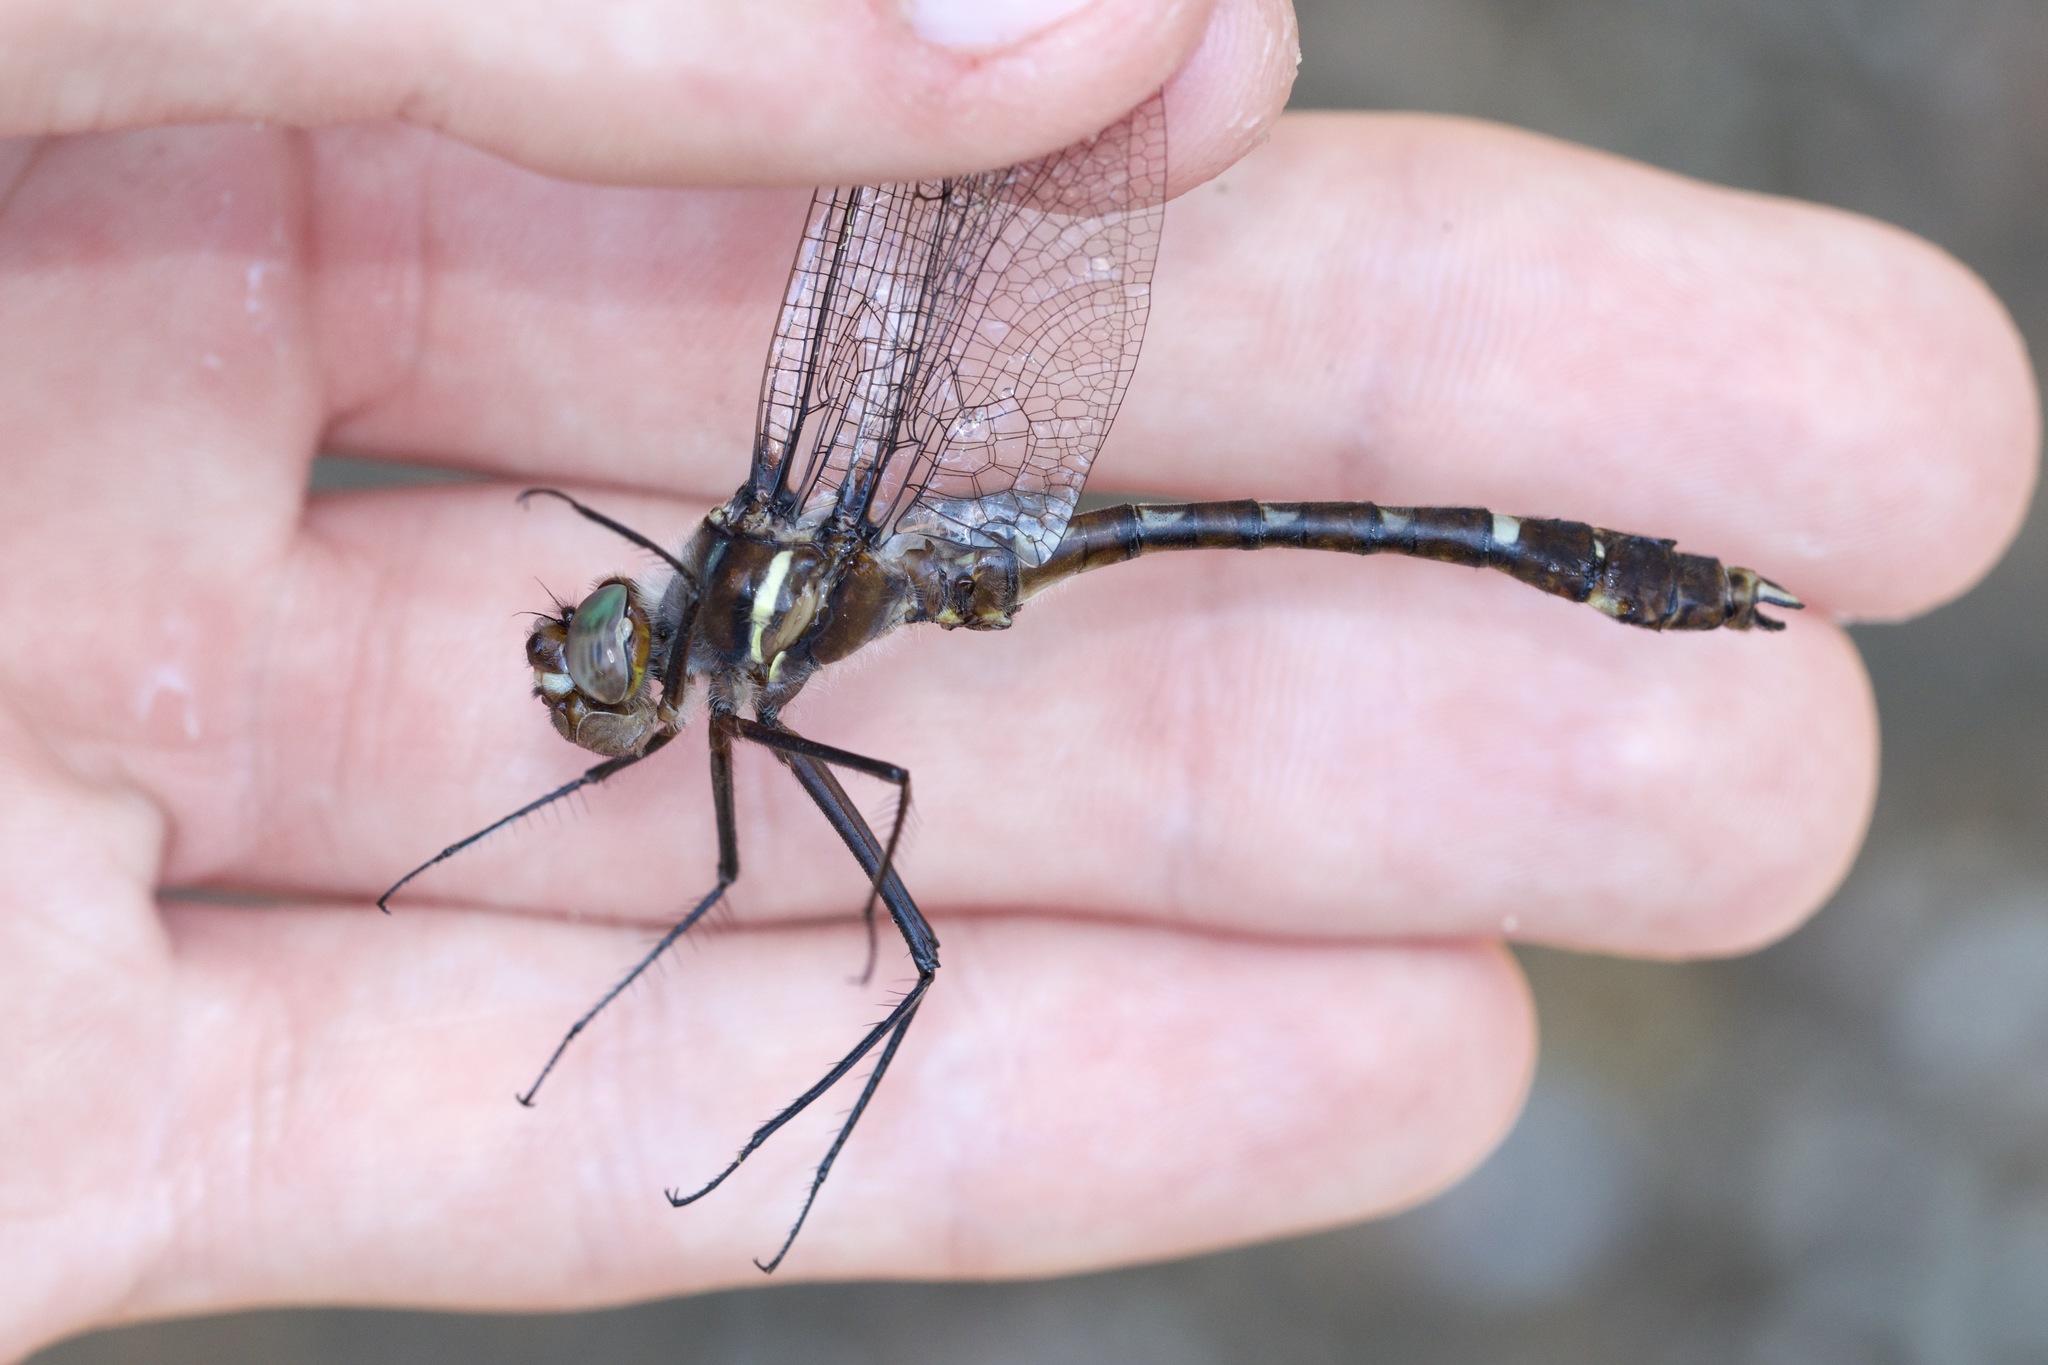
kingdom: Animalia
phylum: Arthropoda
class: Insecta
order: Odonata
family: Macromiidae
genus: Didymops
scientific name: Didymops transversa
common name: Stream cruiser
